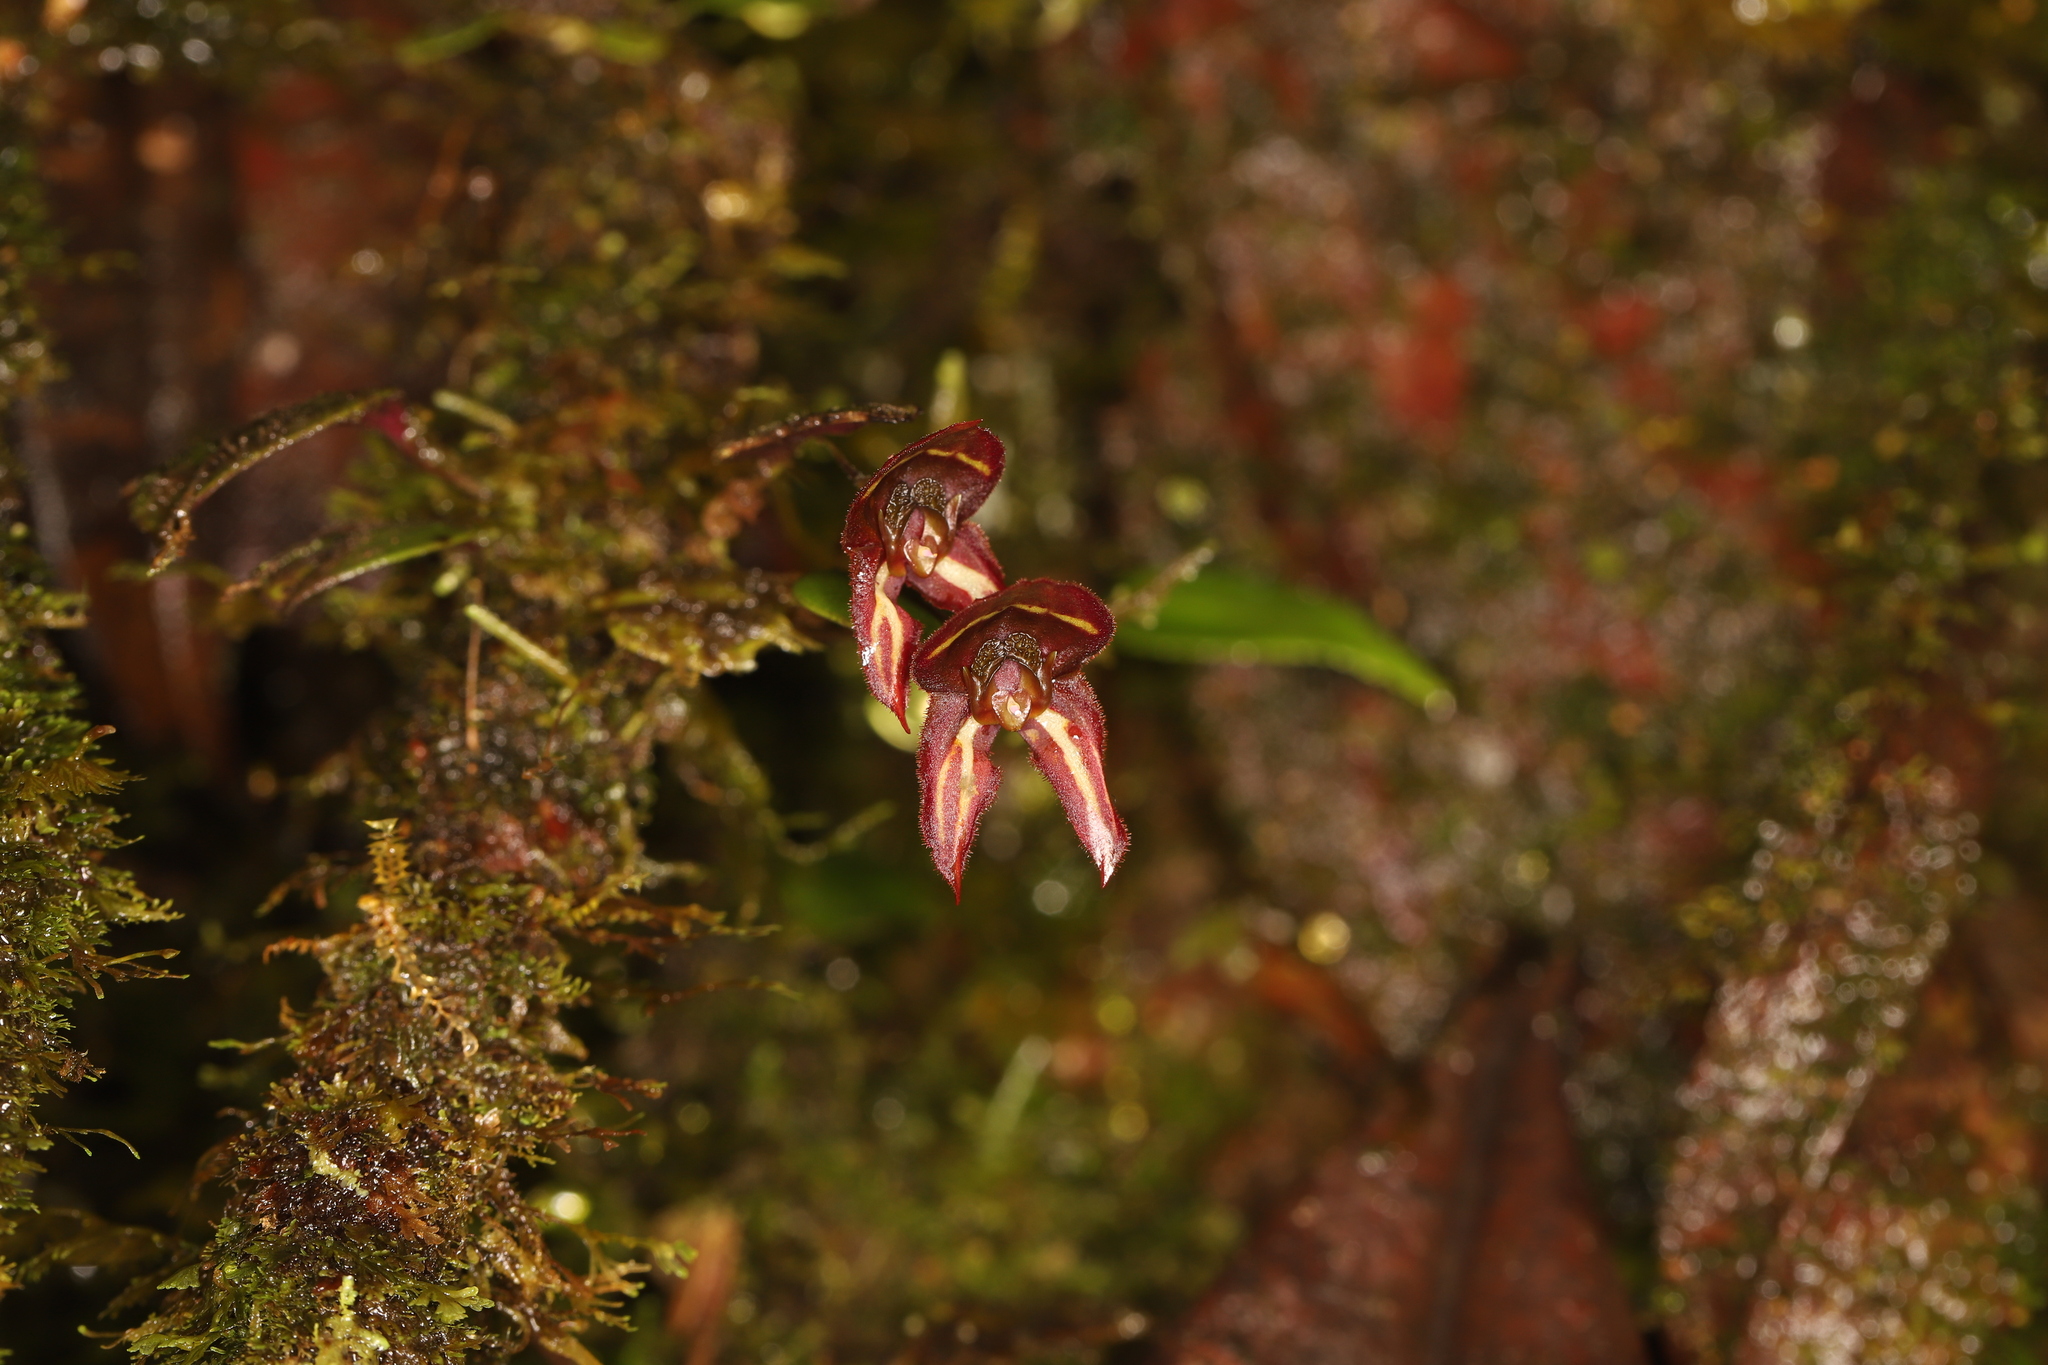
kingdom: Plantae
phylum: Tracheophyta
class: Liliopsida
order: Asparagales
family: Orchidaceae
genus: Lepanthes
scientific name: Lepanthes carunculigera
